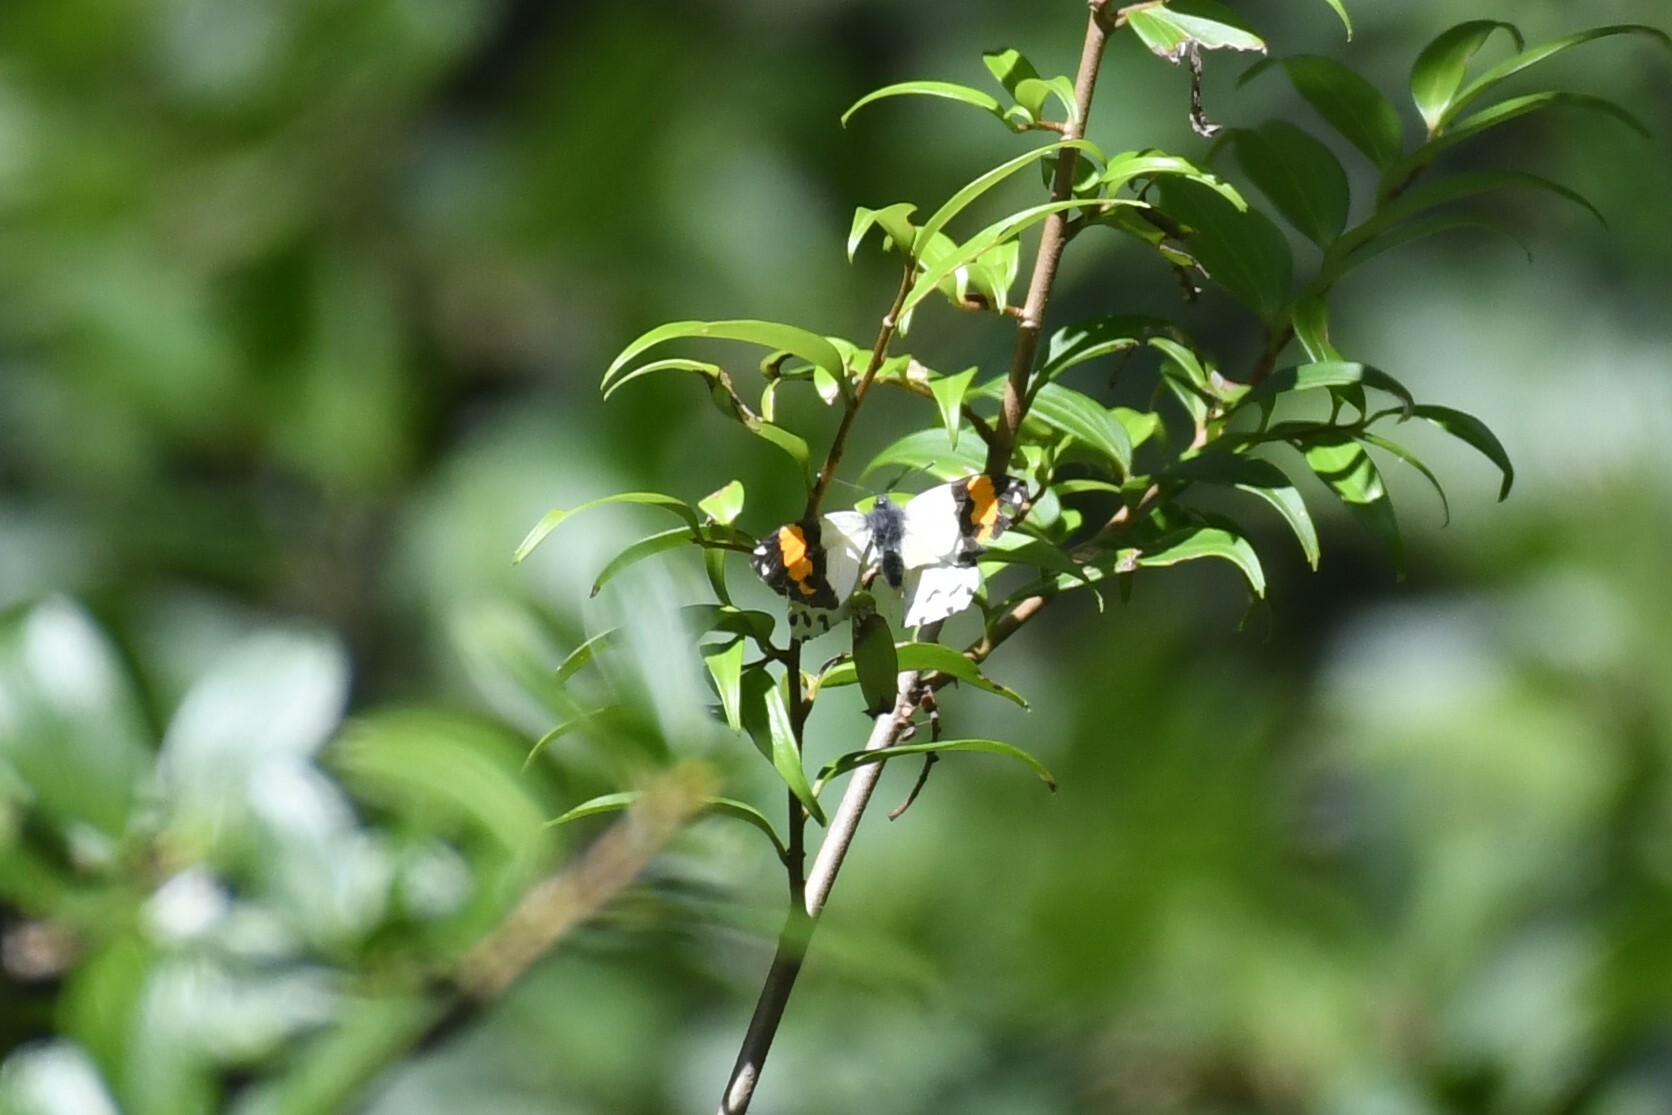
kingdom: Animalia
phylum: Arthropoda
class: Insecta
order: Lepidoptera
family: Pieridae
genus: Eroessa
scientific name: Eroessa chiliensis
